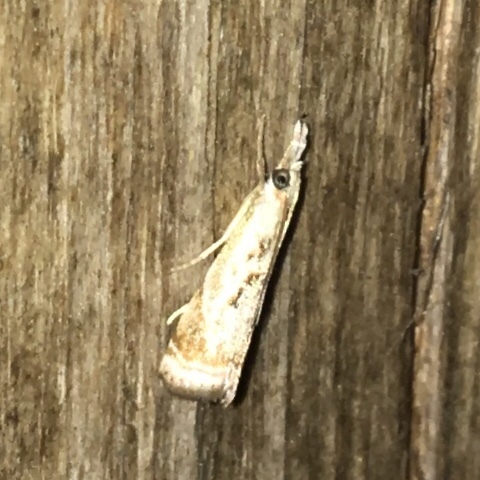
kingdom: Animalia
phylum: Arthropoda
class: Insecta
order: Lepidoptera
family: Crambidae
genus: Microcrambus
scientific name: Microcrambus elegans
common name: Elegant grass-veneer
